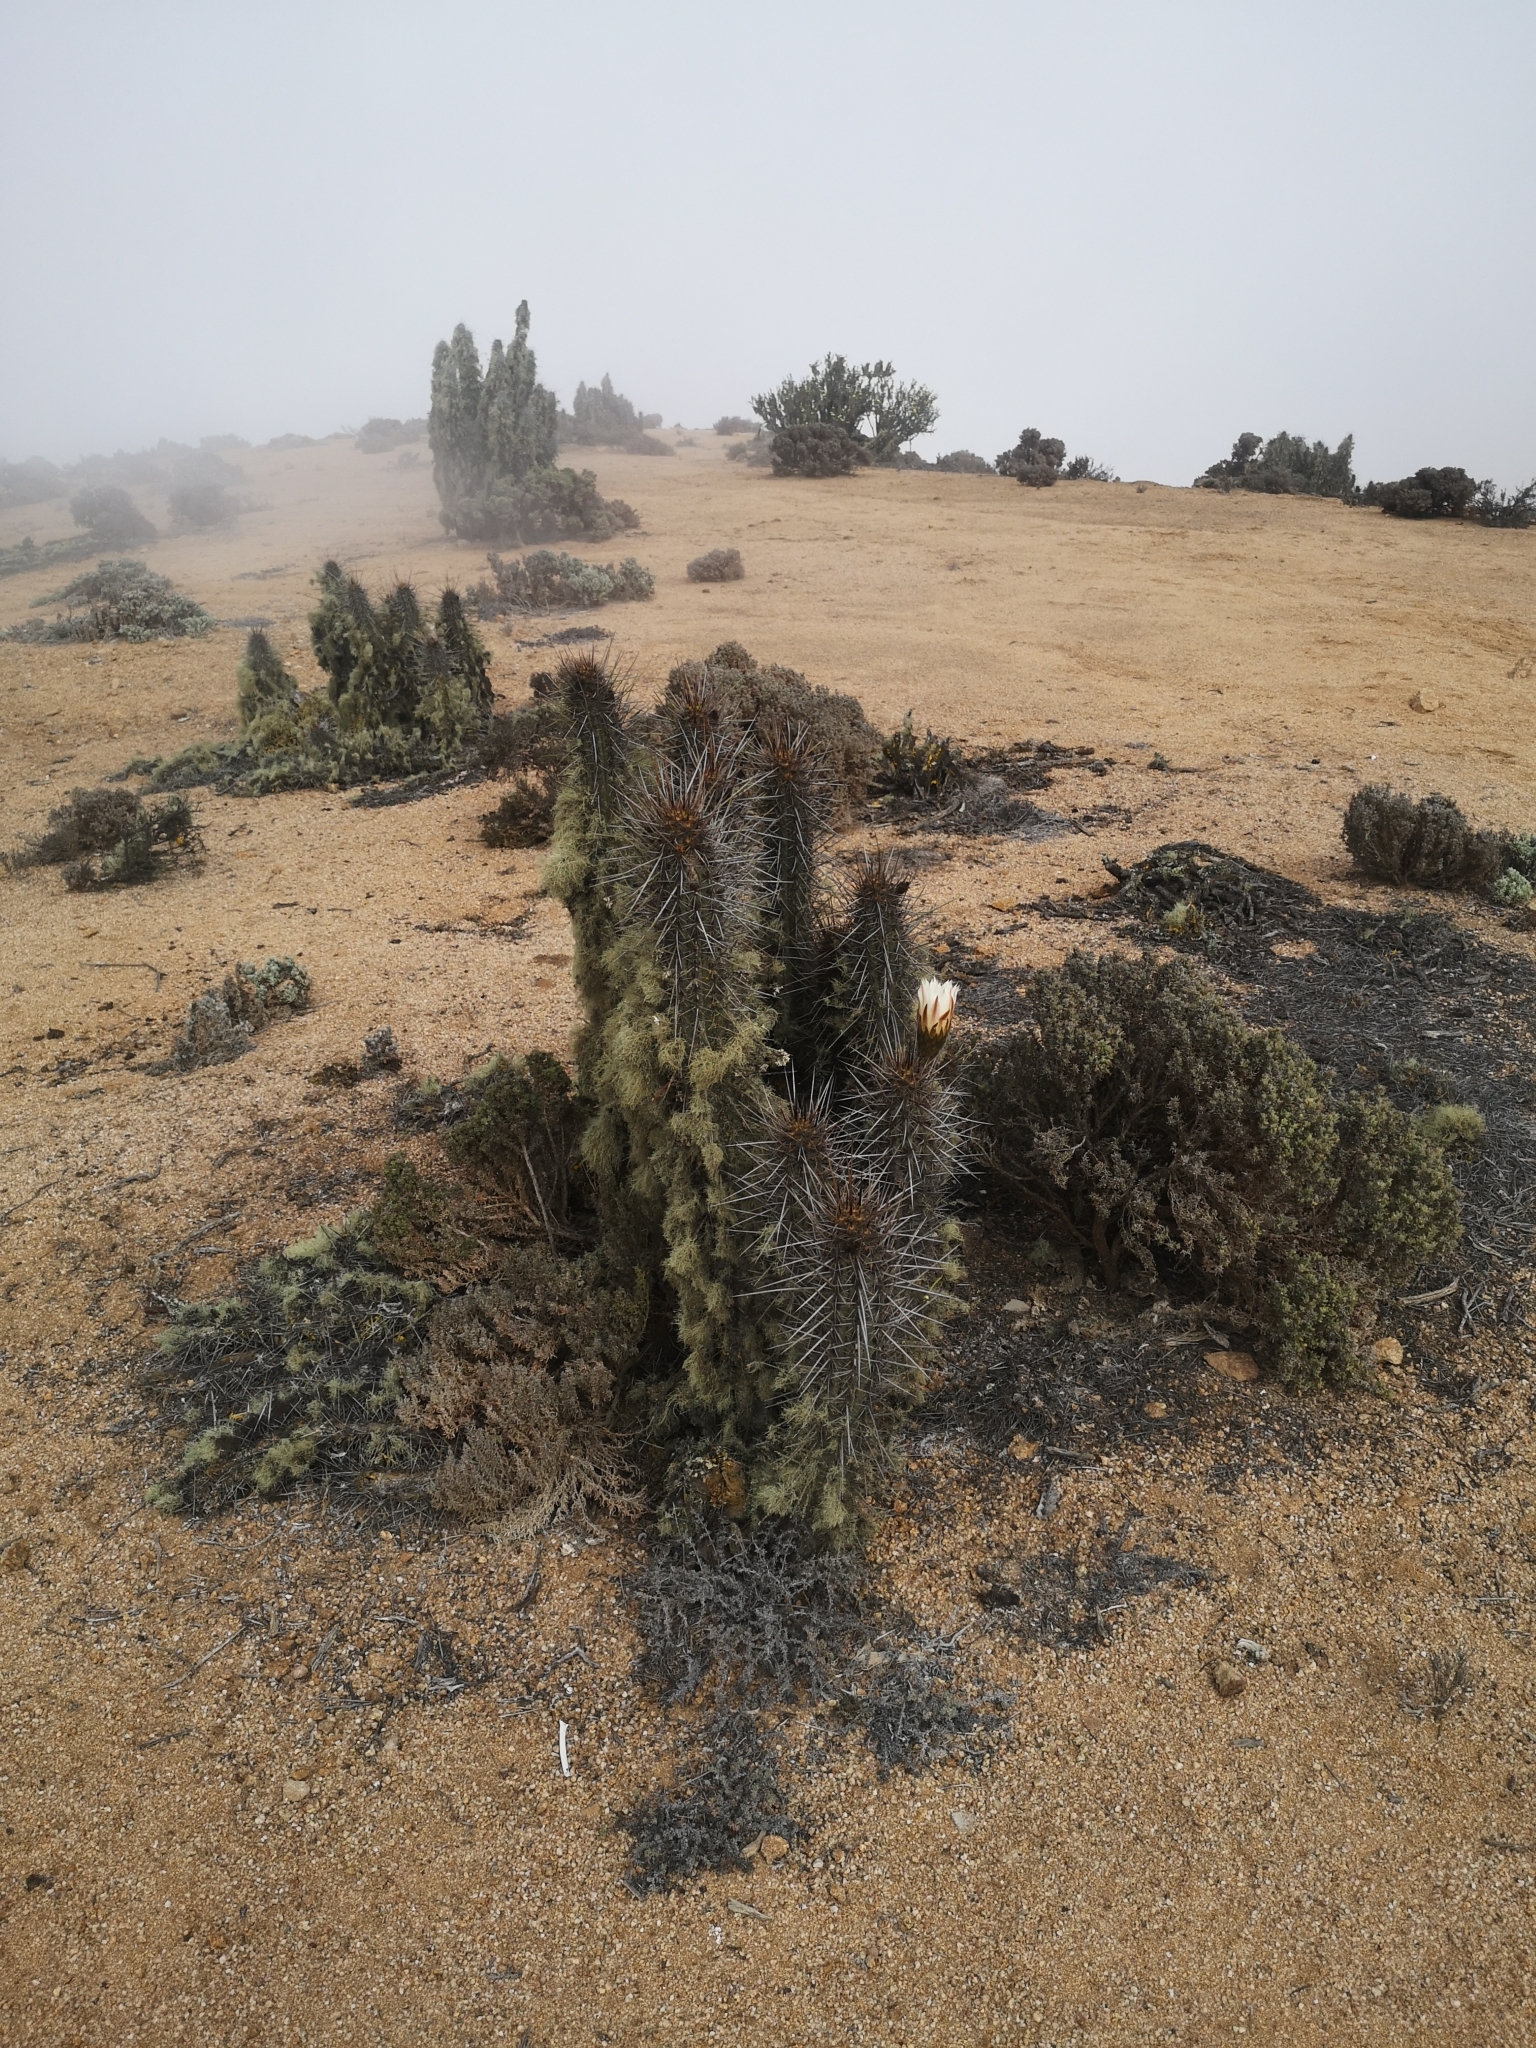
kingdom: Plantae
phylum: Tracheophyta
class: Magnoliopsida
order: Caryophyllales
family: Cactaceae
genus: Leucostele
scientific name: Leucostele deserticola
